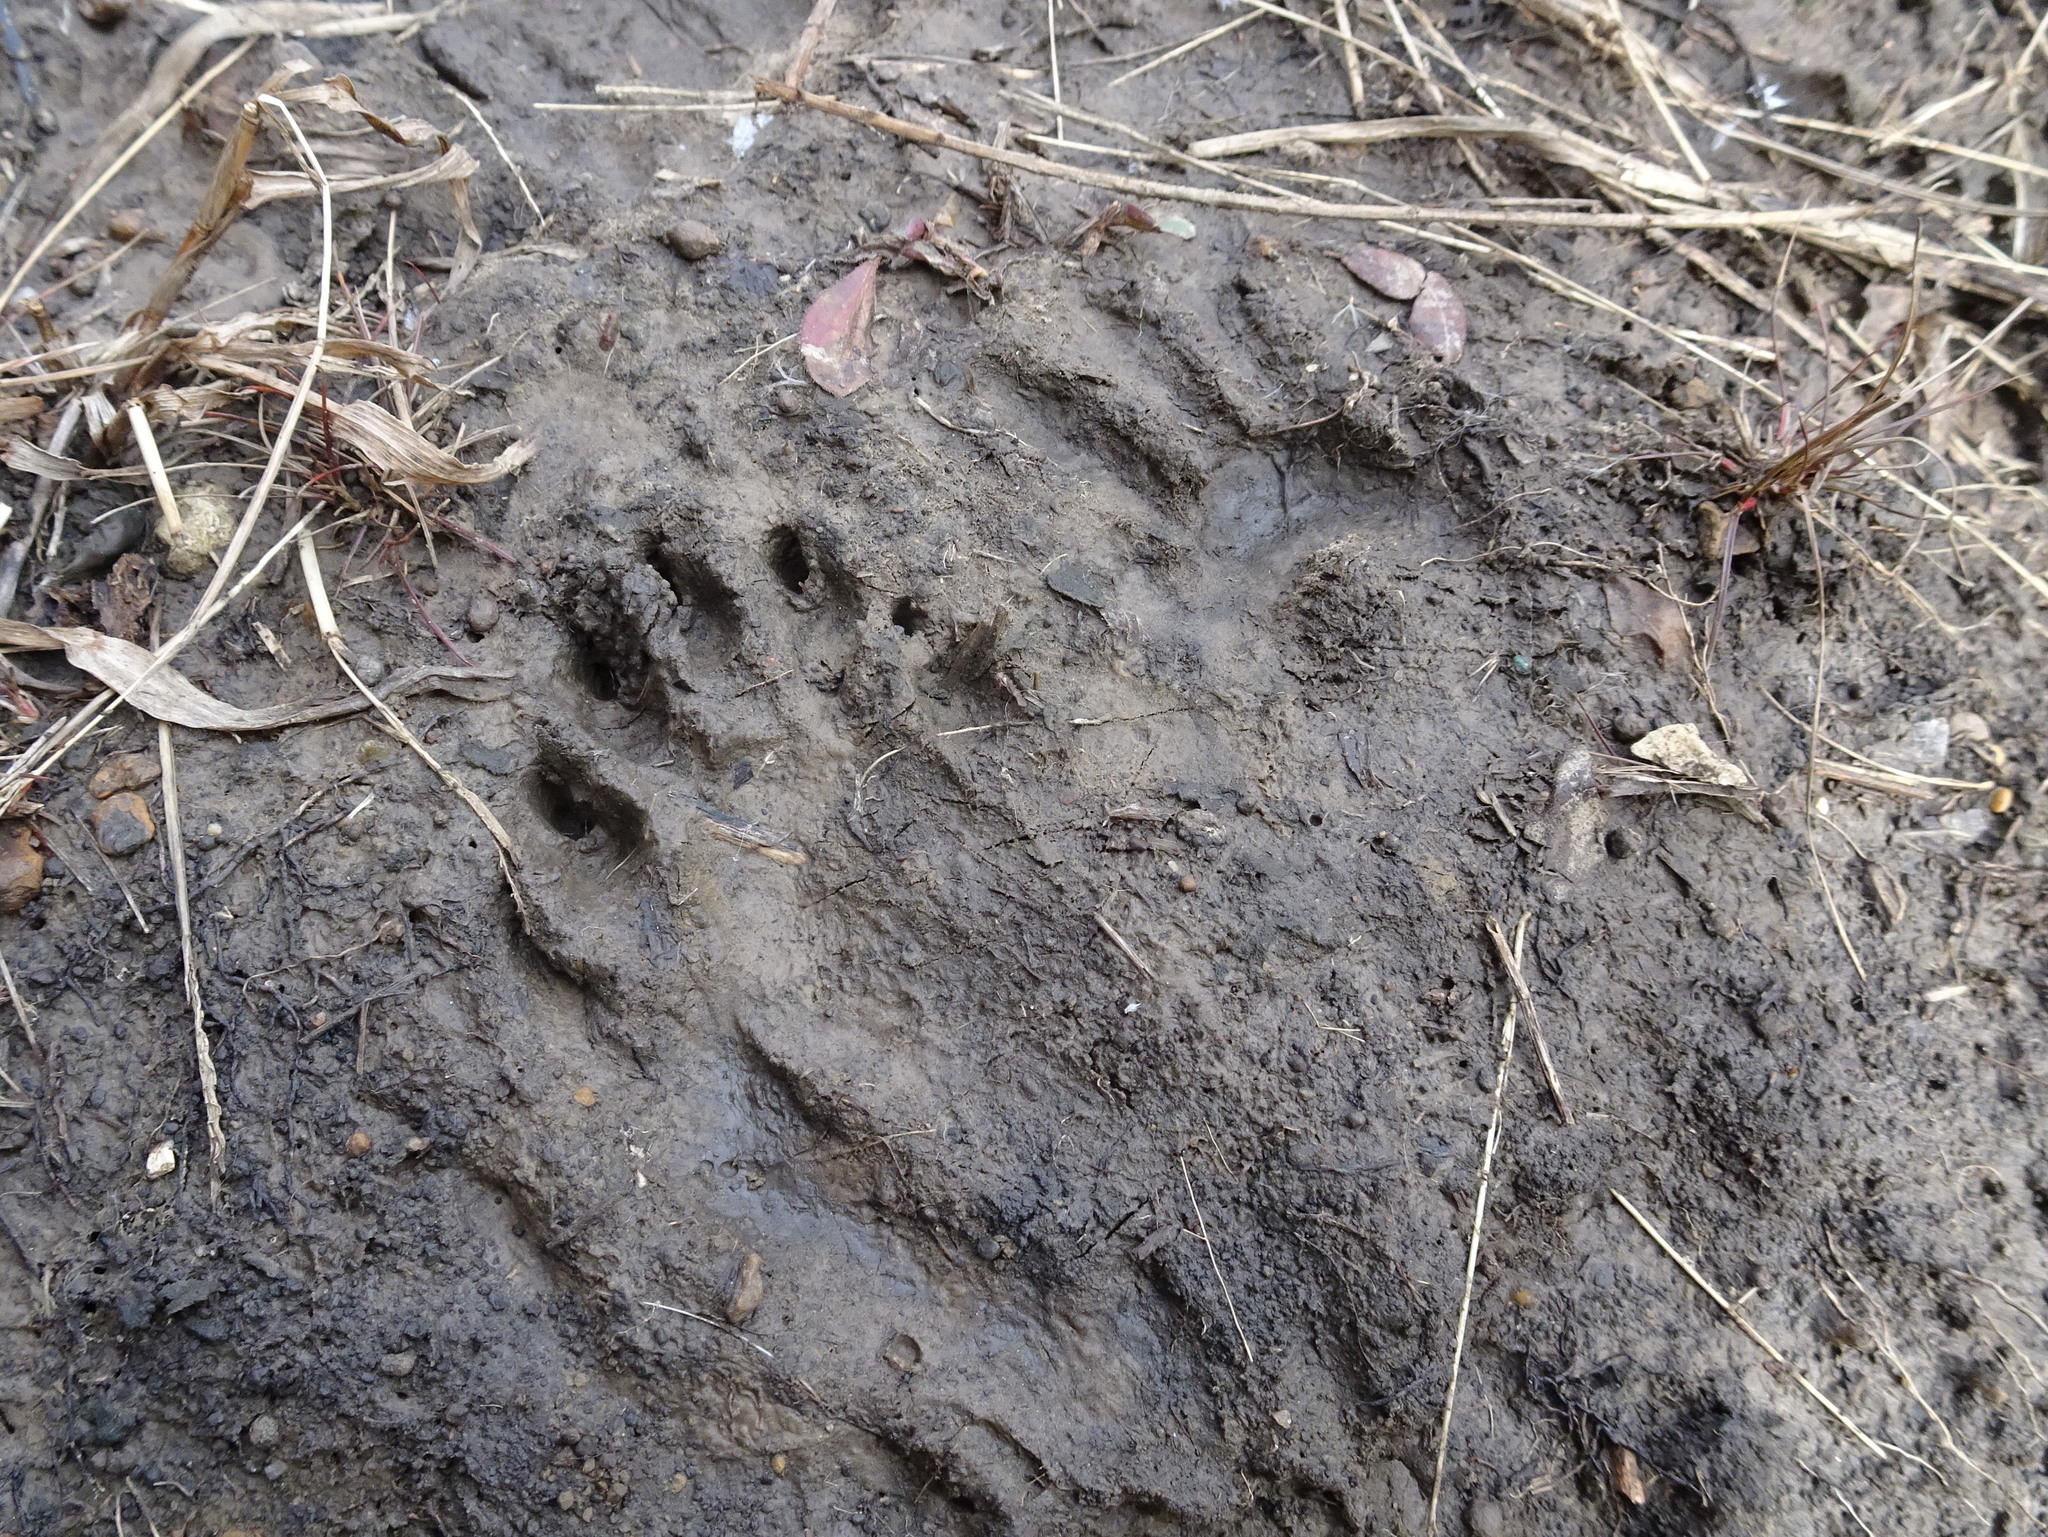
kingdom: Animalia
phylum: Chordata
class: Mammalia
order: Carnivora
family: Procyonidae
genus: Procyon
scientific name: Procyon lotor
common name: Raccoon
